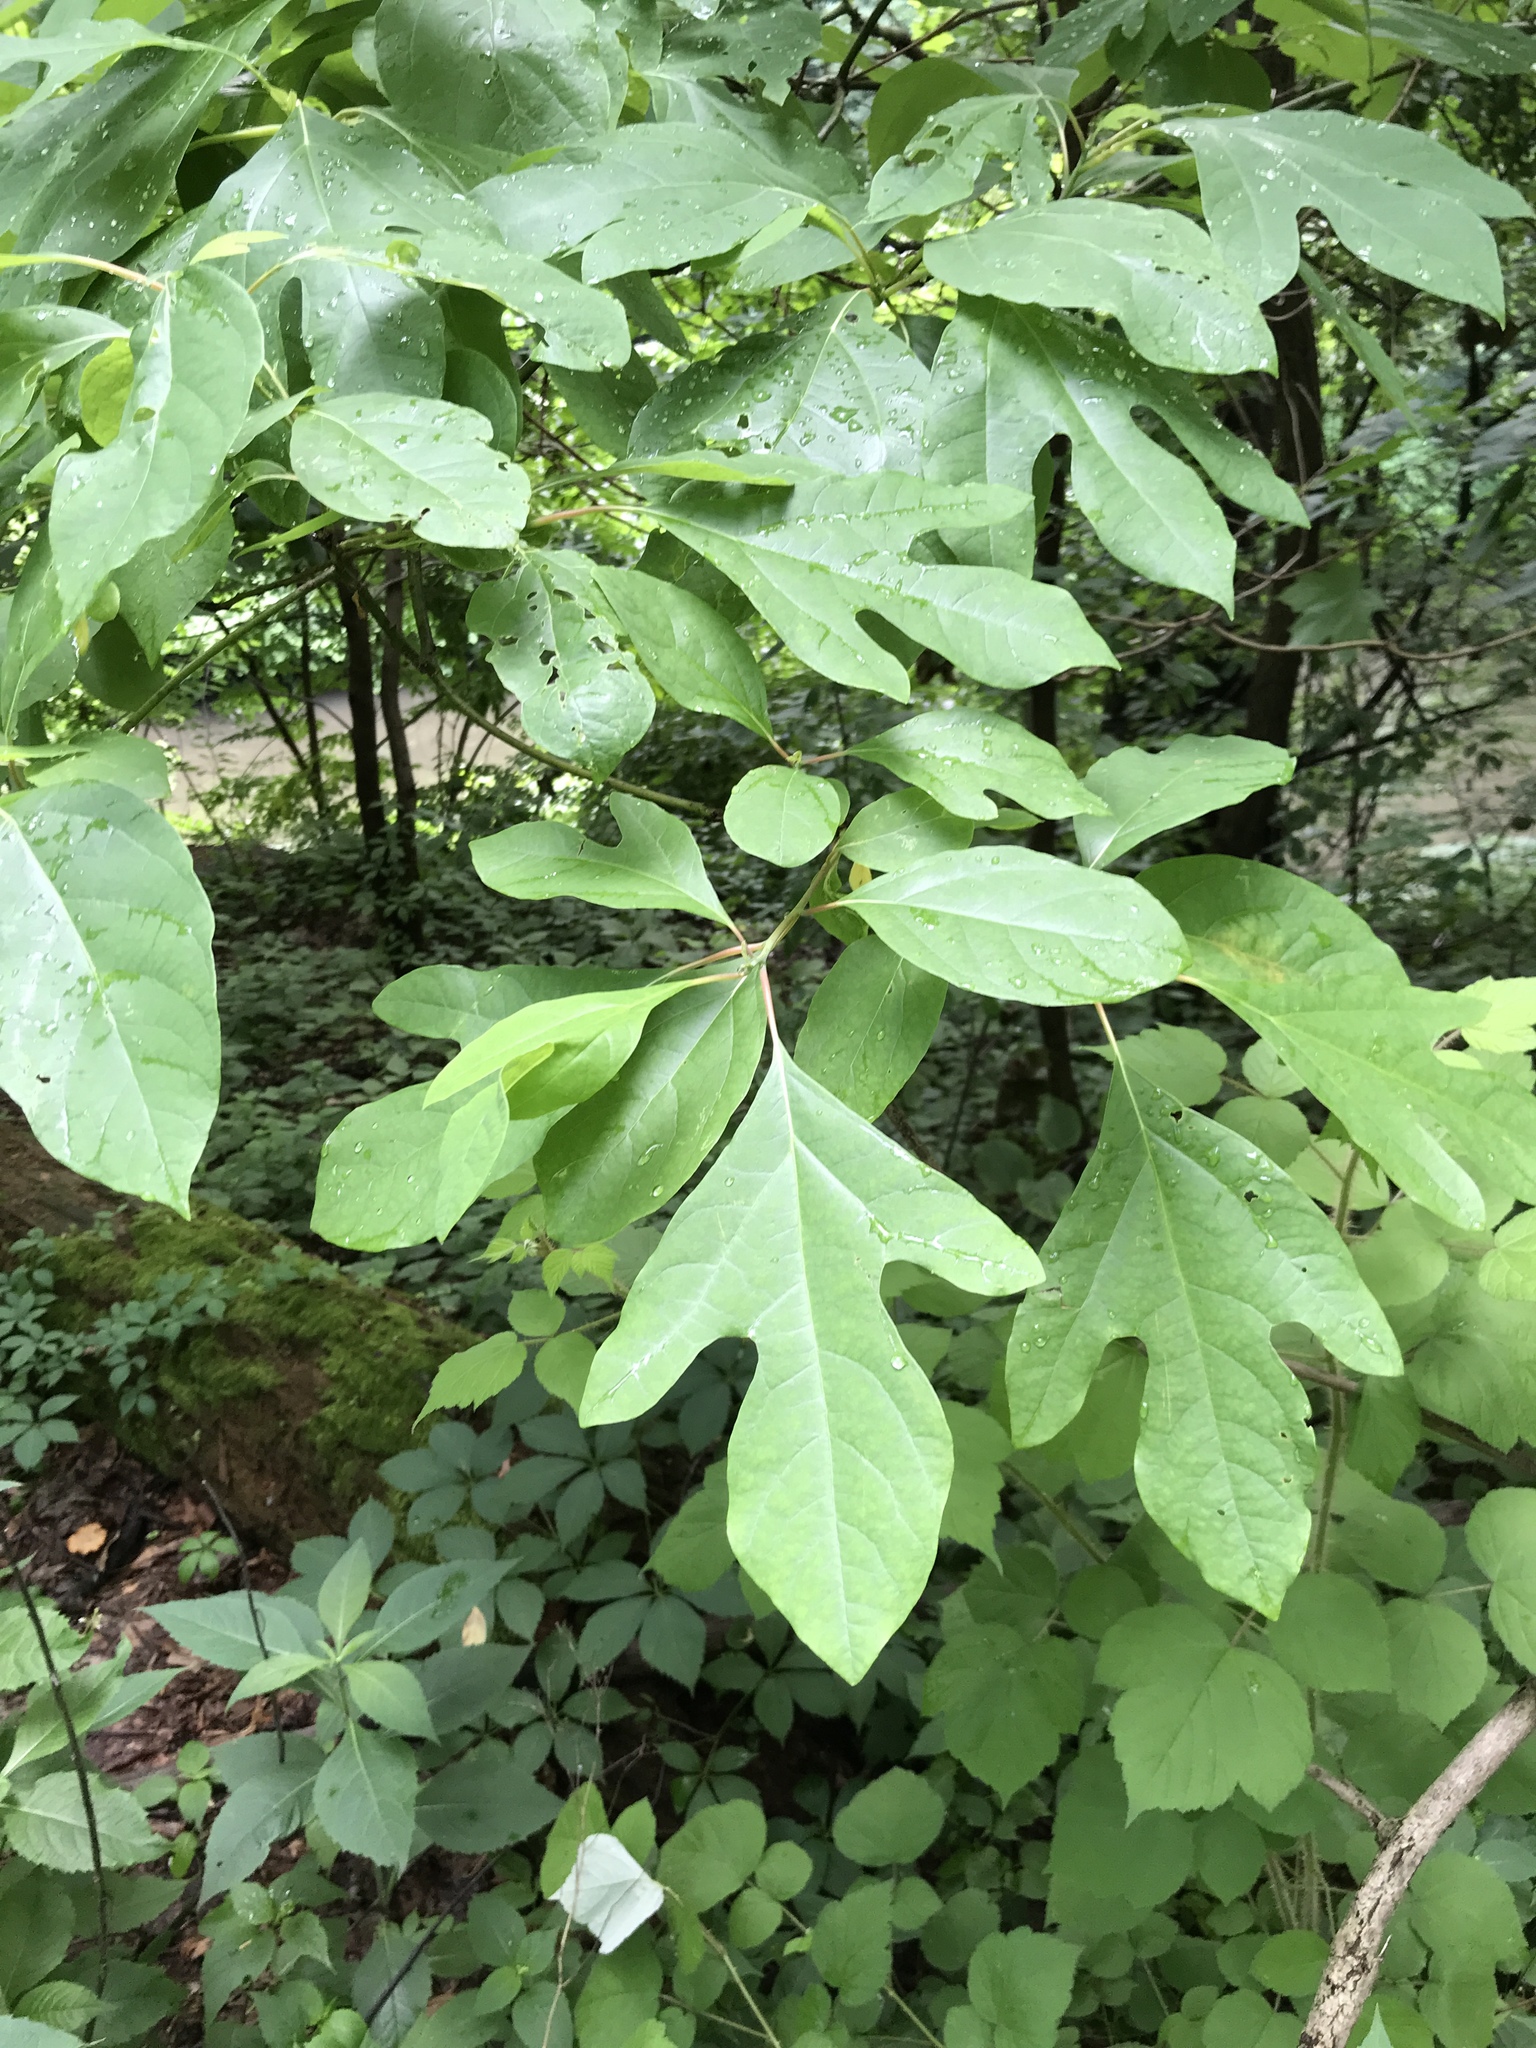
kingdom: Plantae
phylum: Tracheophyta
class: Magnoliopsida
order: Laurales
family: Lauraceae
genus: Sassafras
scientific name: Sassafras albidum
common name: Sassafras
